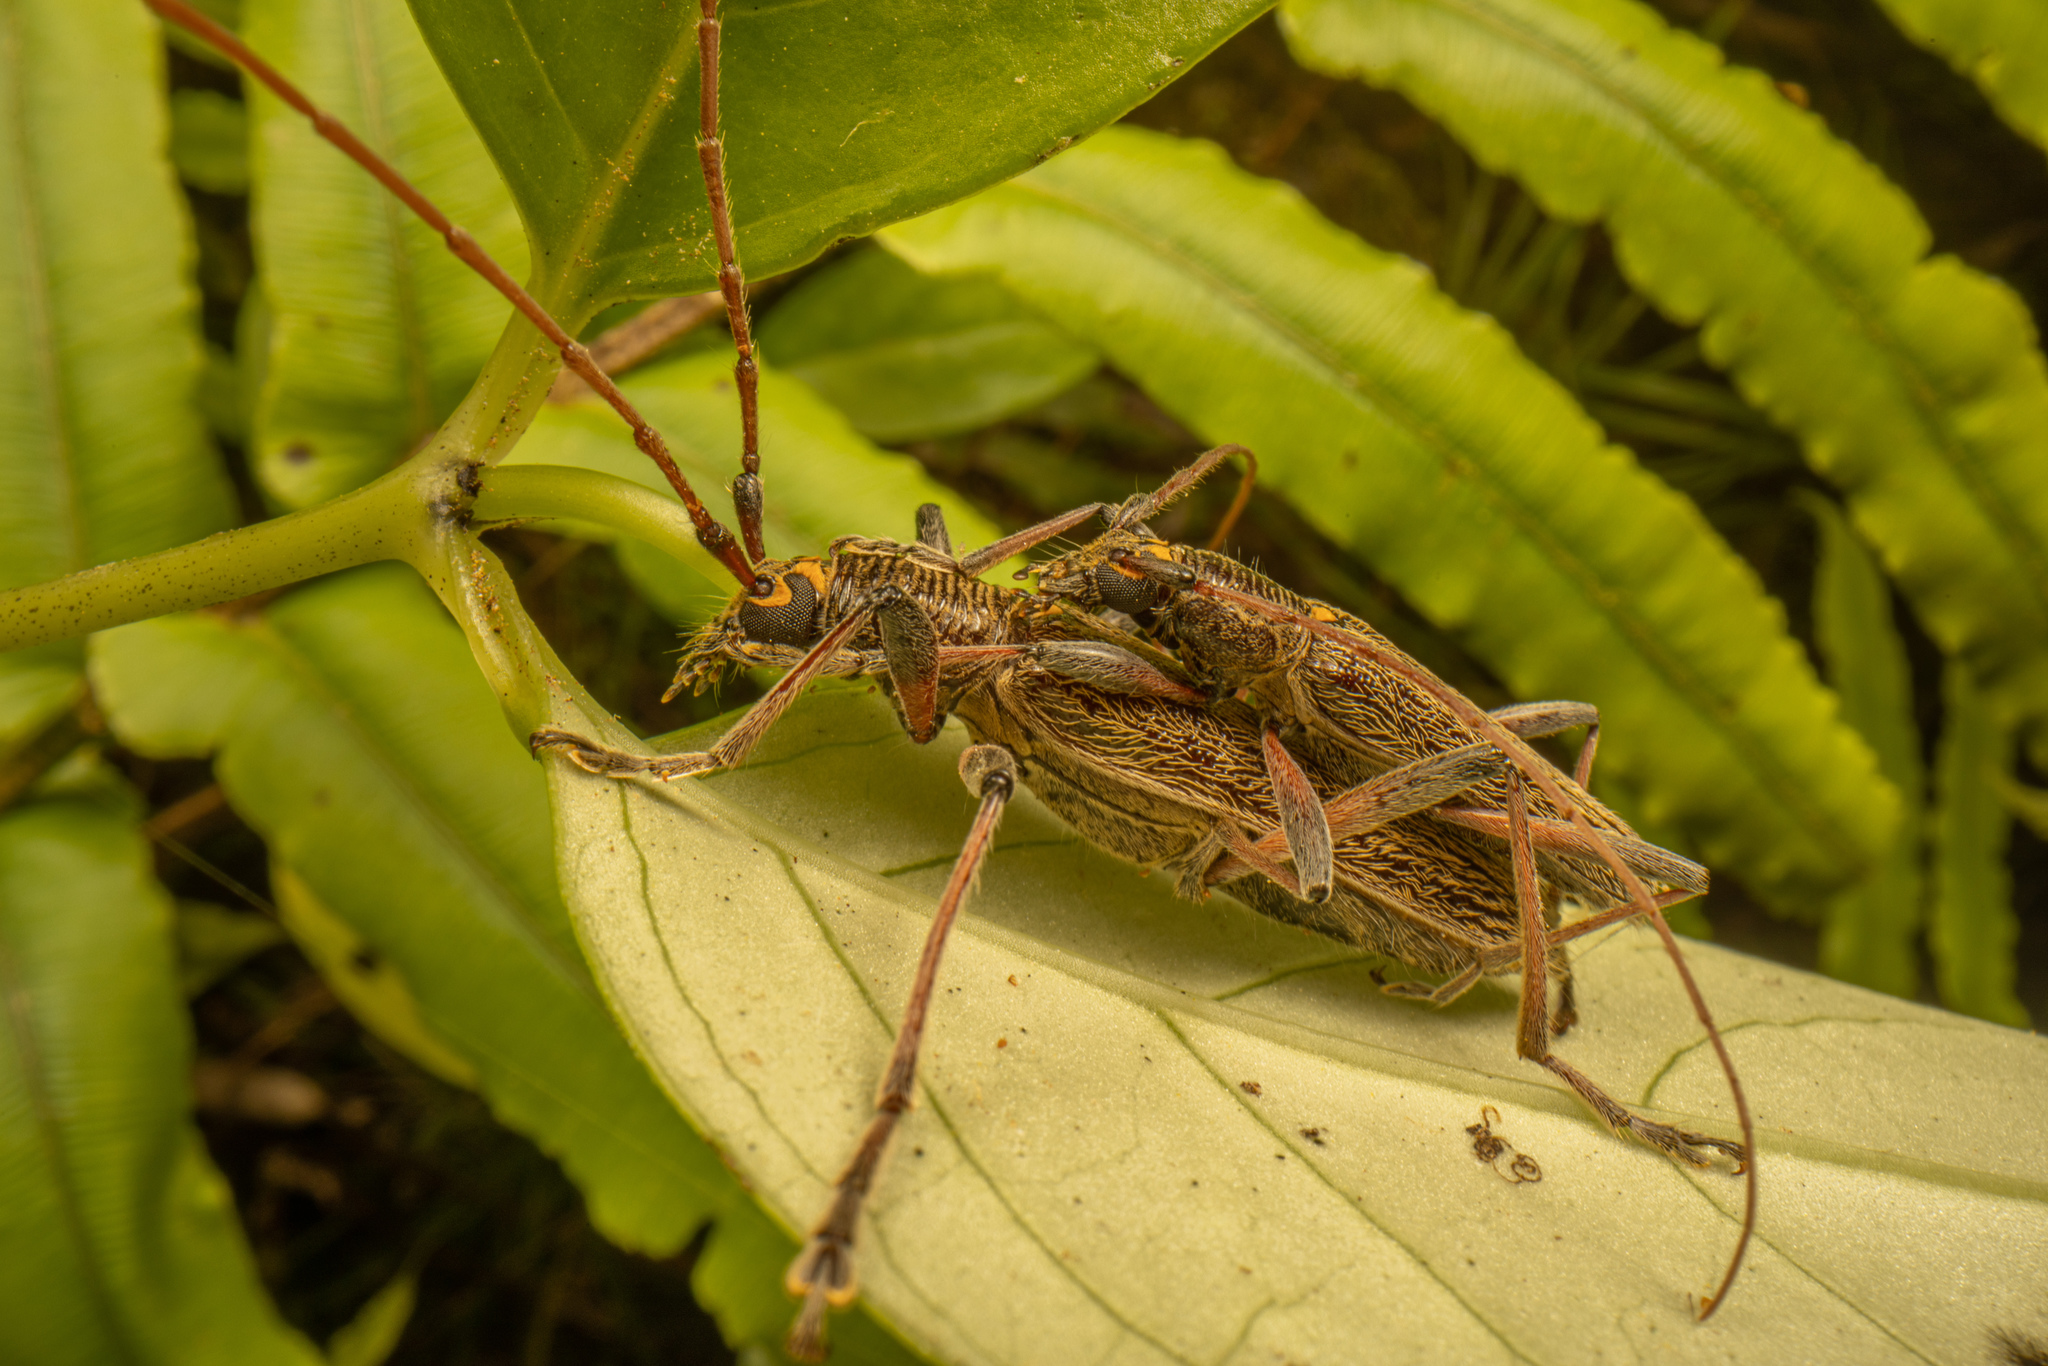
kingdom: Animalia
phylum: Arthropoda
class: Insecta
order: Coleoptera
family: Cerambycidae
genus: Oemona
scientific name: Oemona hirta
